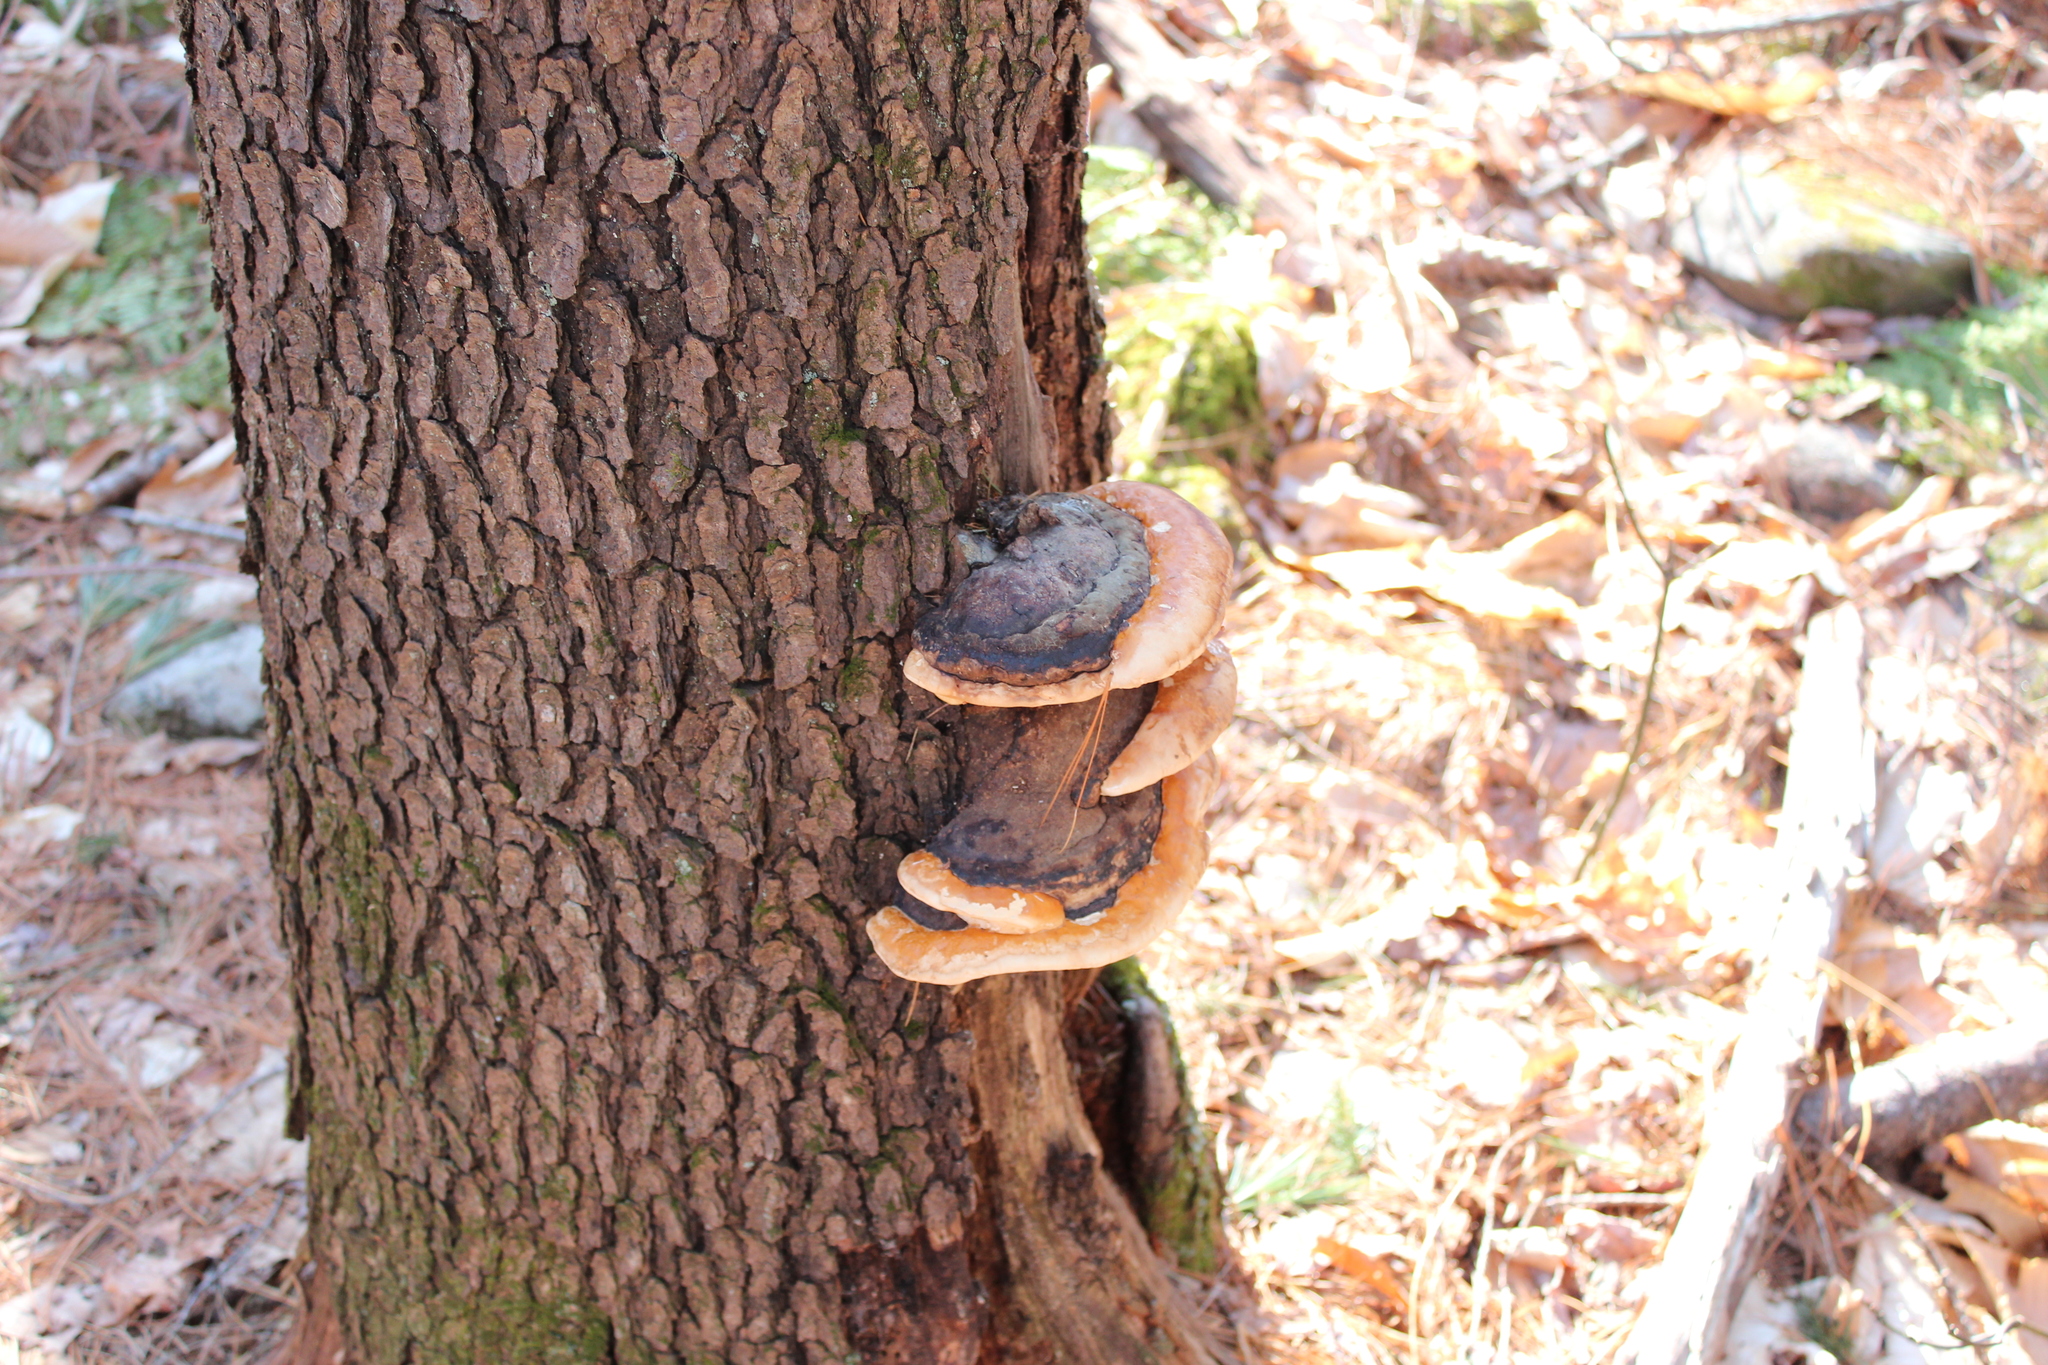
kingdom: Fungi
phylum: Basidiomycota
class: Agaricomycetes
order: Polyporales
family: Fomitopsidaceae
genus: Fomitopsis
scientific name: Fomitopsis mounceae
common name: Northern red belt
